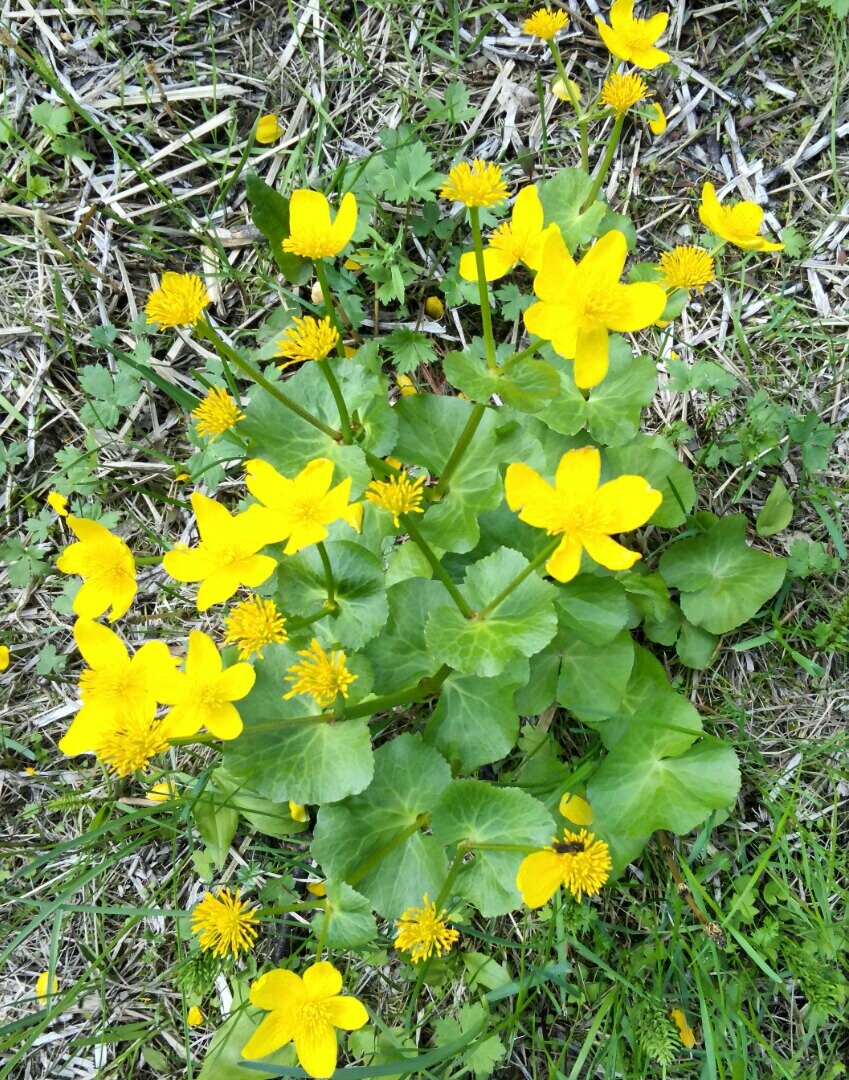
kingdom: Plantae
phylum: Tracheophyta
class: Magnoliopsida
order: Ranunculales
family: Ranunculaceae
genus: Caltha
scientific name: Caltha palustris
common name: Marsh marigold
